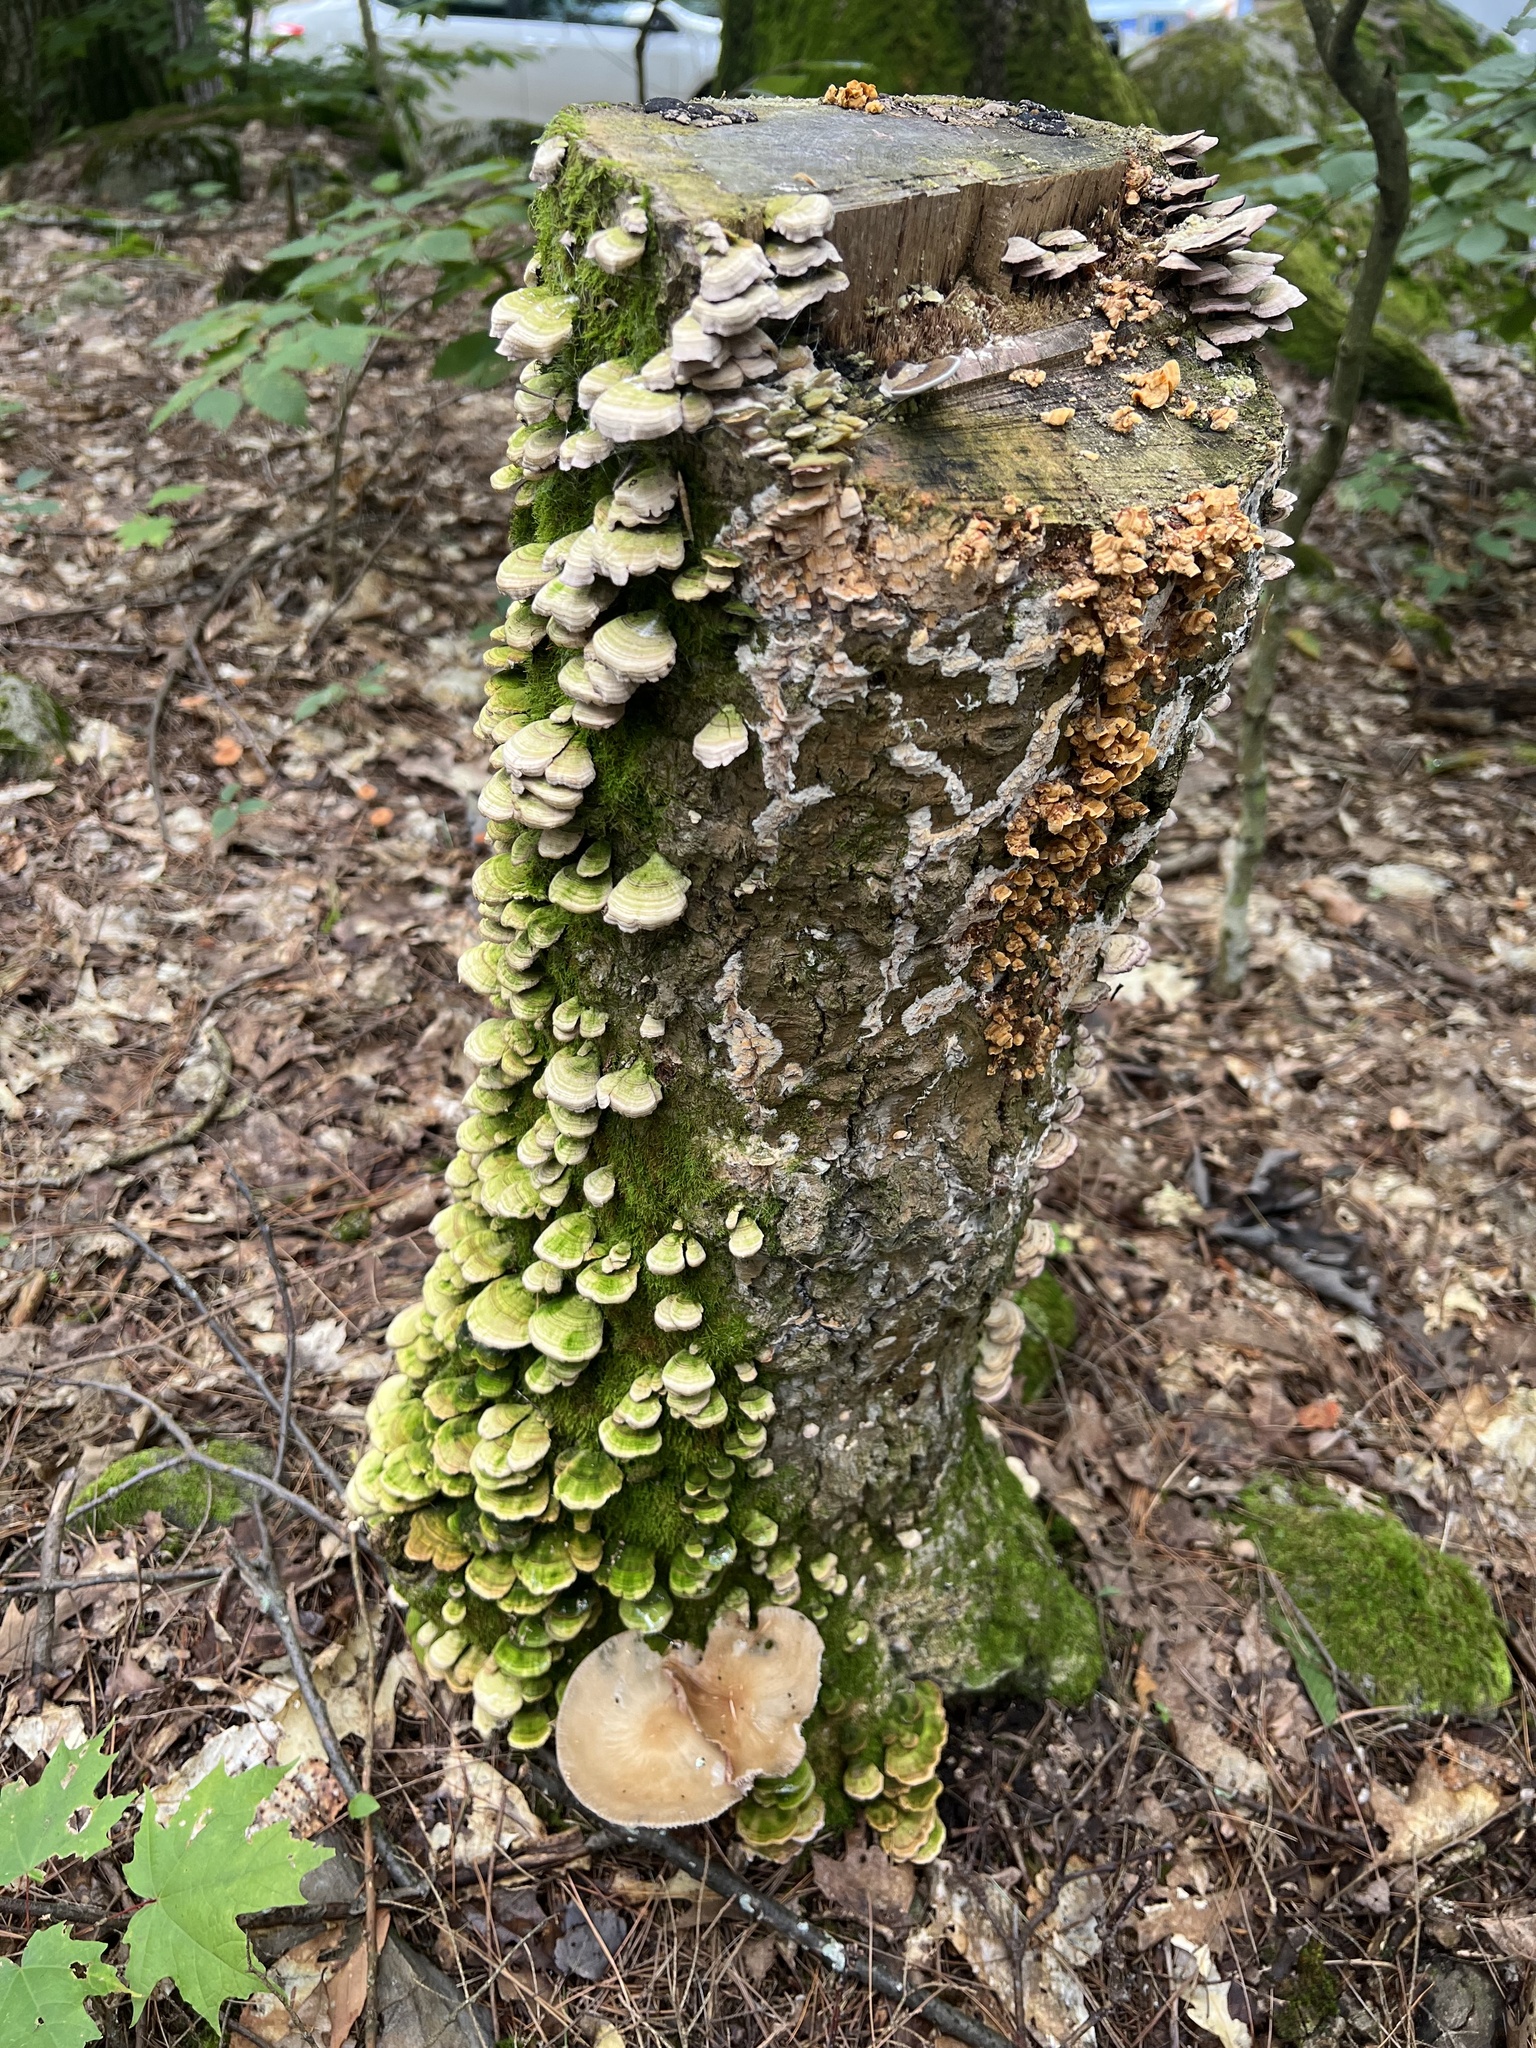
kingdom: Fungi
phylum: Basidiomycota
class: Agaricomycetes
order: Polyporales
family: Polyporaceae
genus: Daedaleopsis
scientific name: Daedaleopsis confragosa
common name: Blushing bracket
